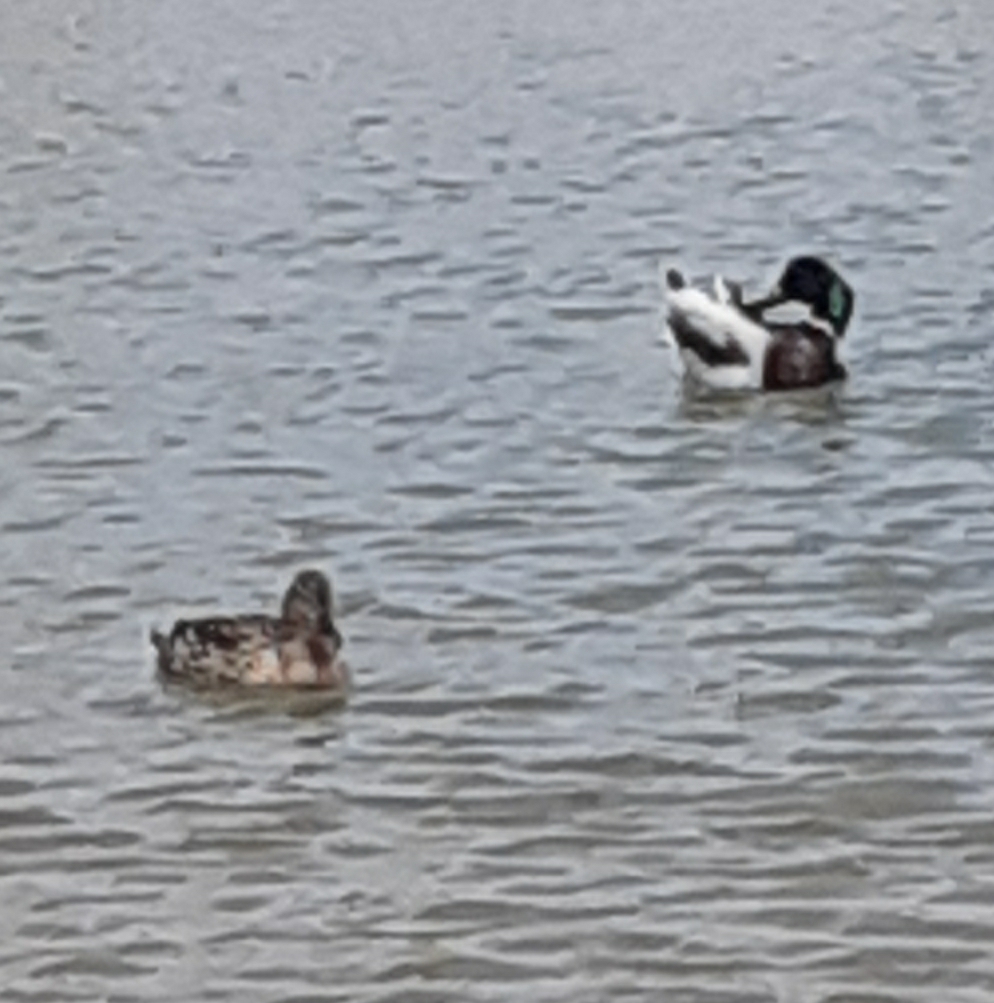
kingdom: Animalia
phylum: Chordata
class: Aves
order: Anseriformes
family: Anatidae
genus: Anas
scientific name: Anas platyrhynchos
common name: Mallard
